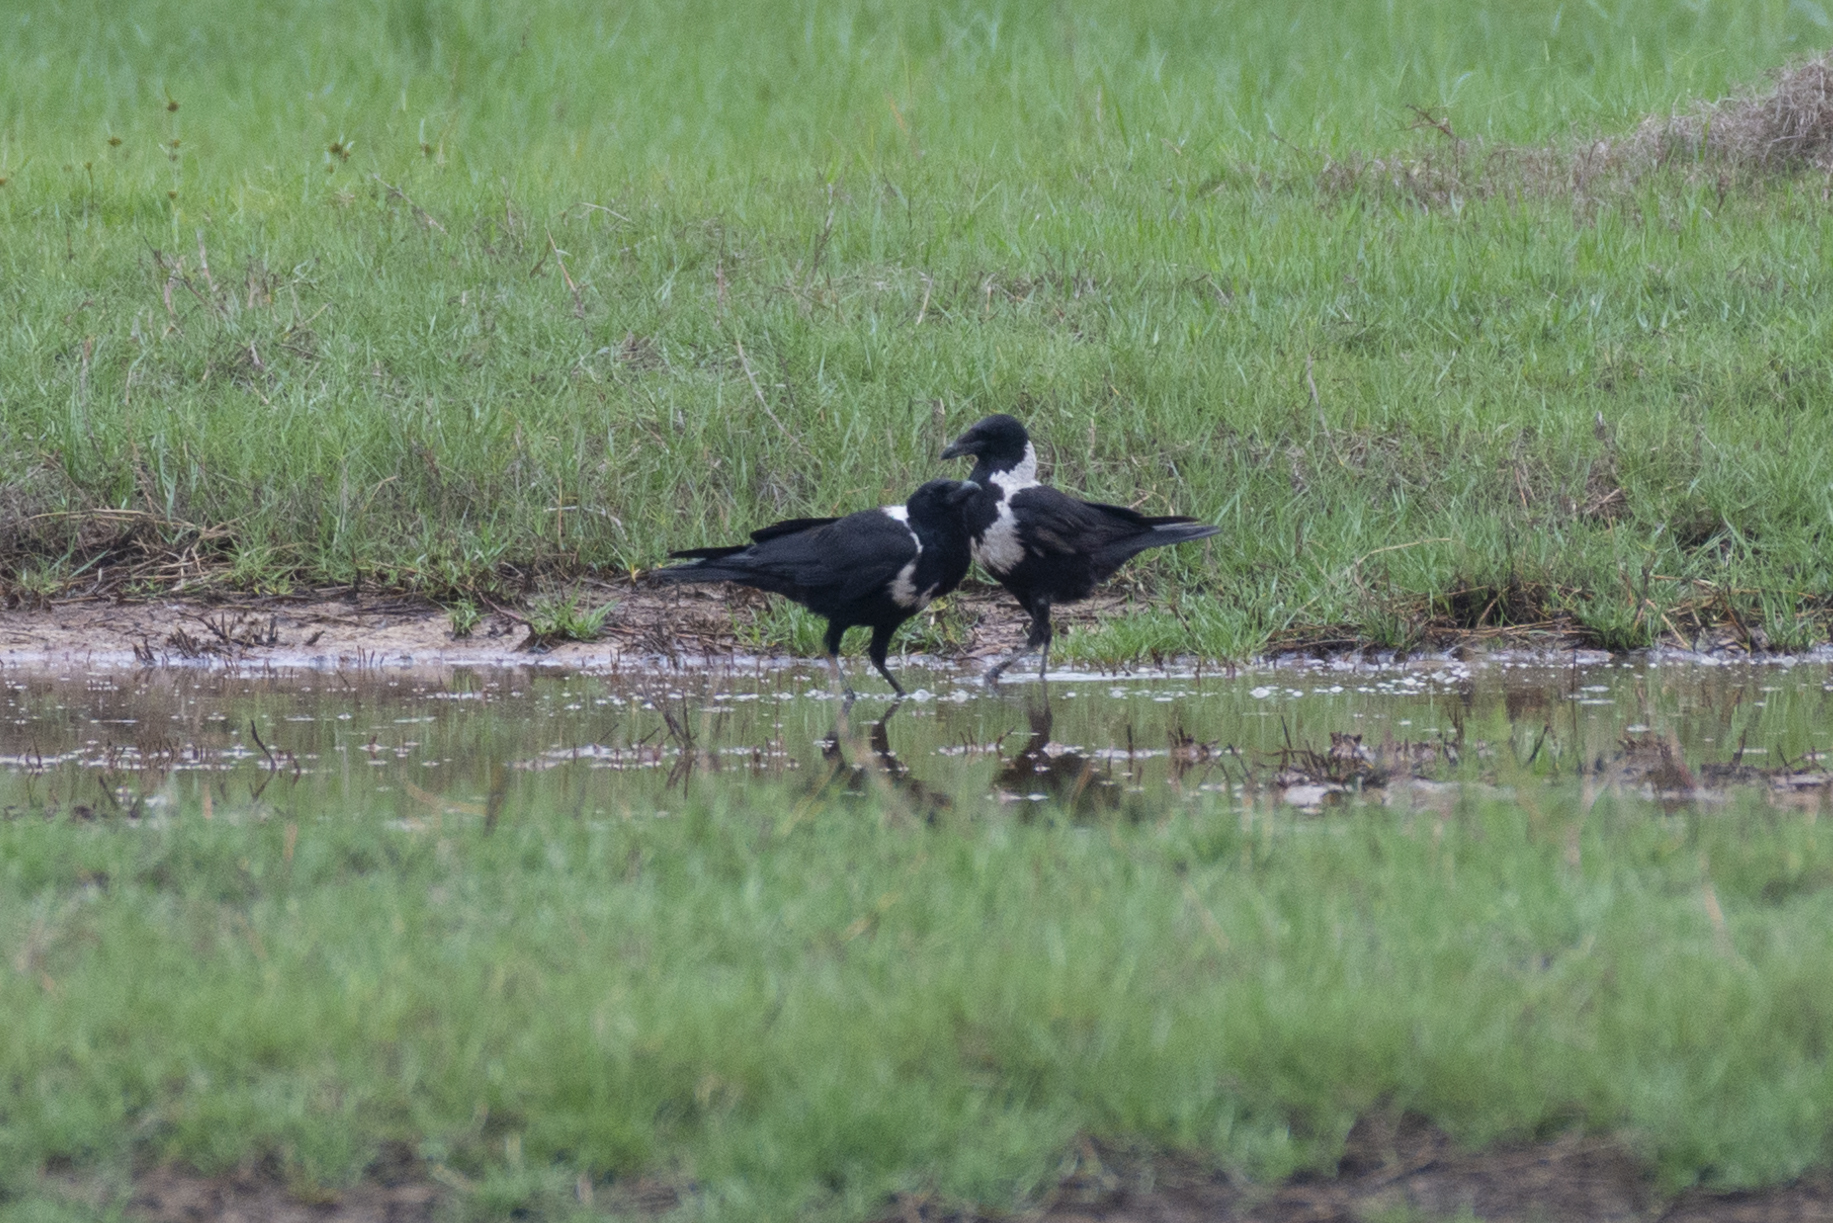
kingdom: Animalia
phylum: Chordata
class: Aves
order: Passeriformes
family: Corvidae
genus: Corvus
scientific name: Corvus pectoralis
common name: Collared crow
